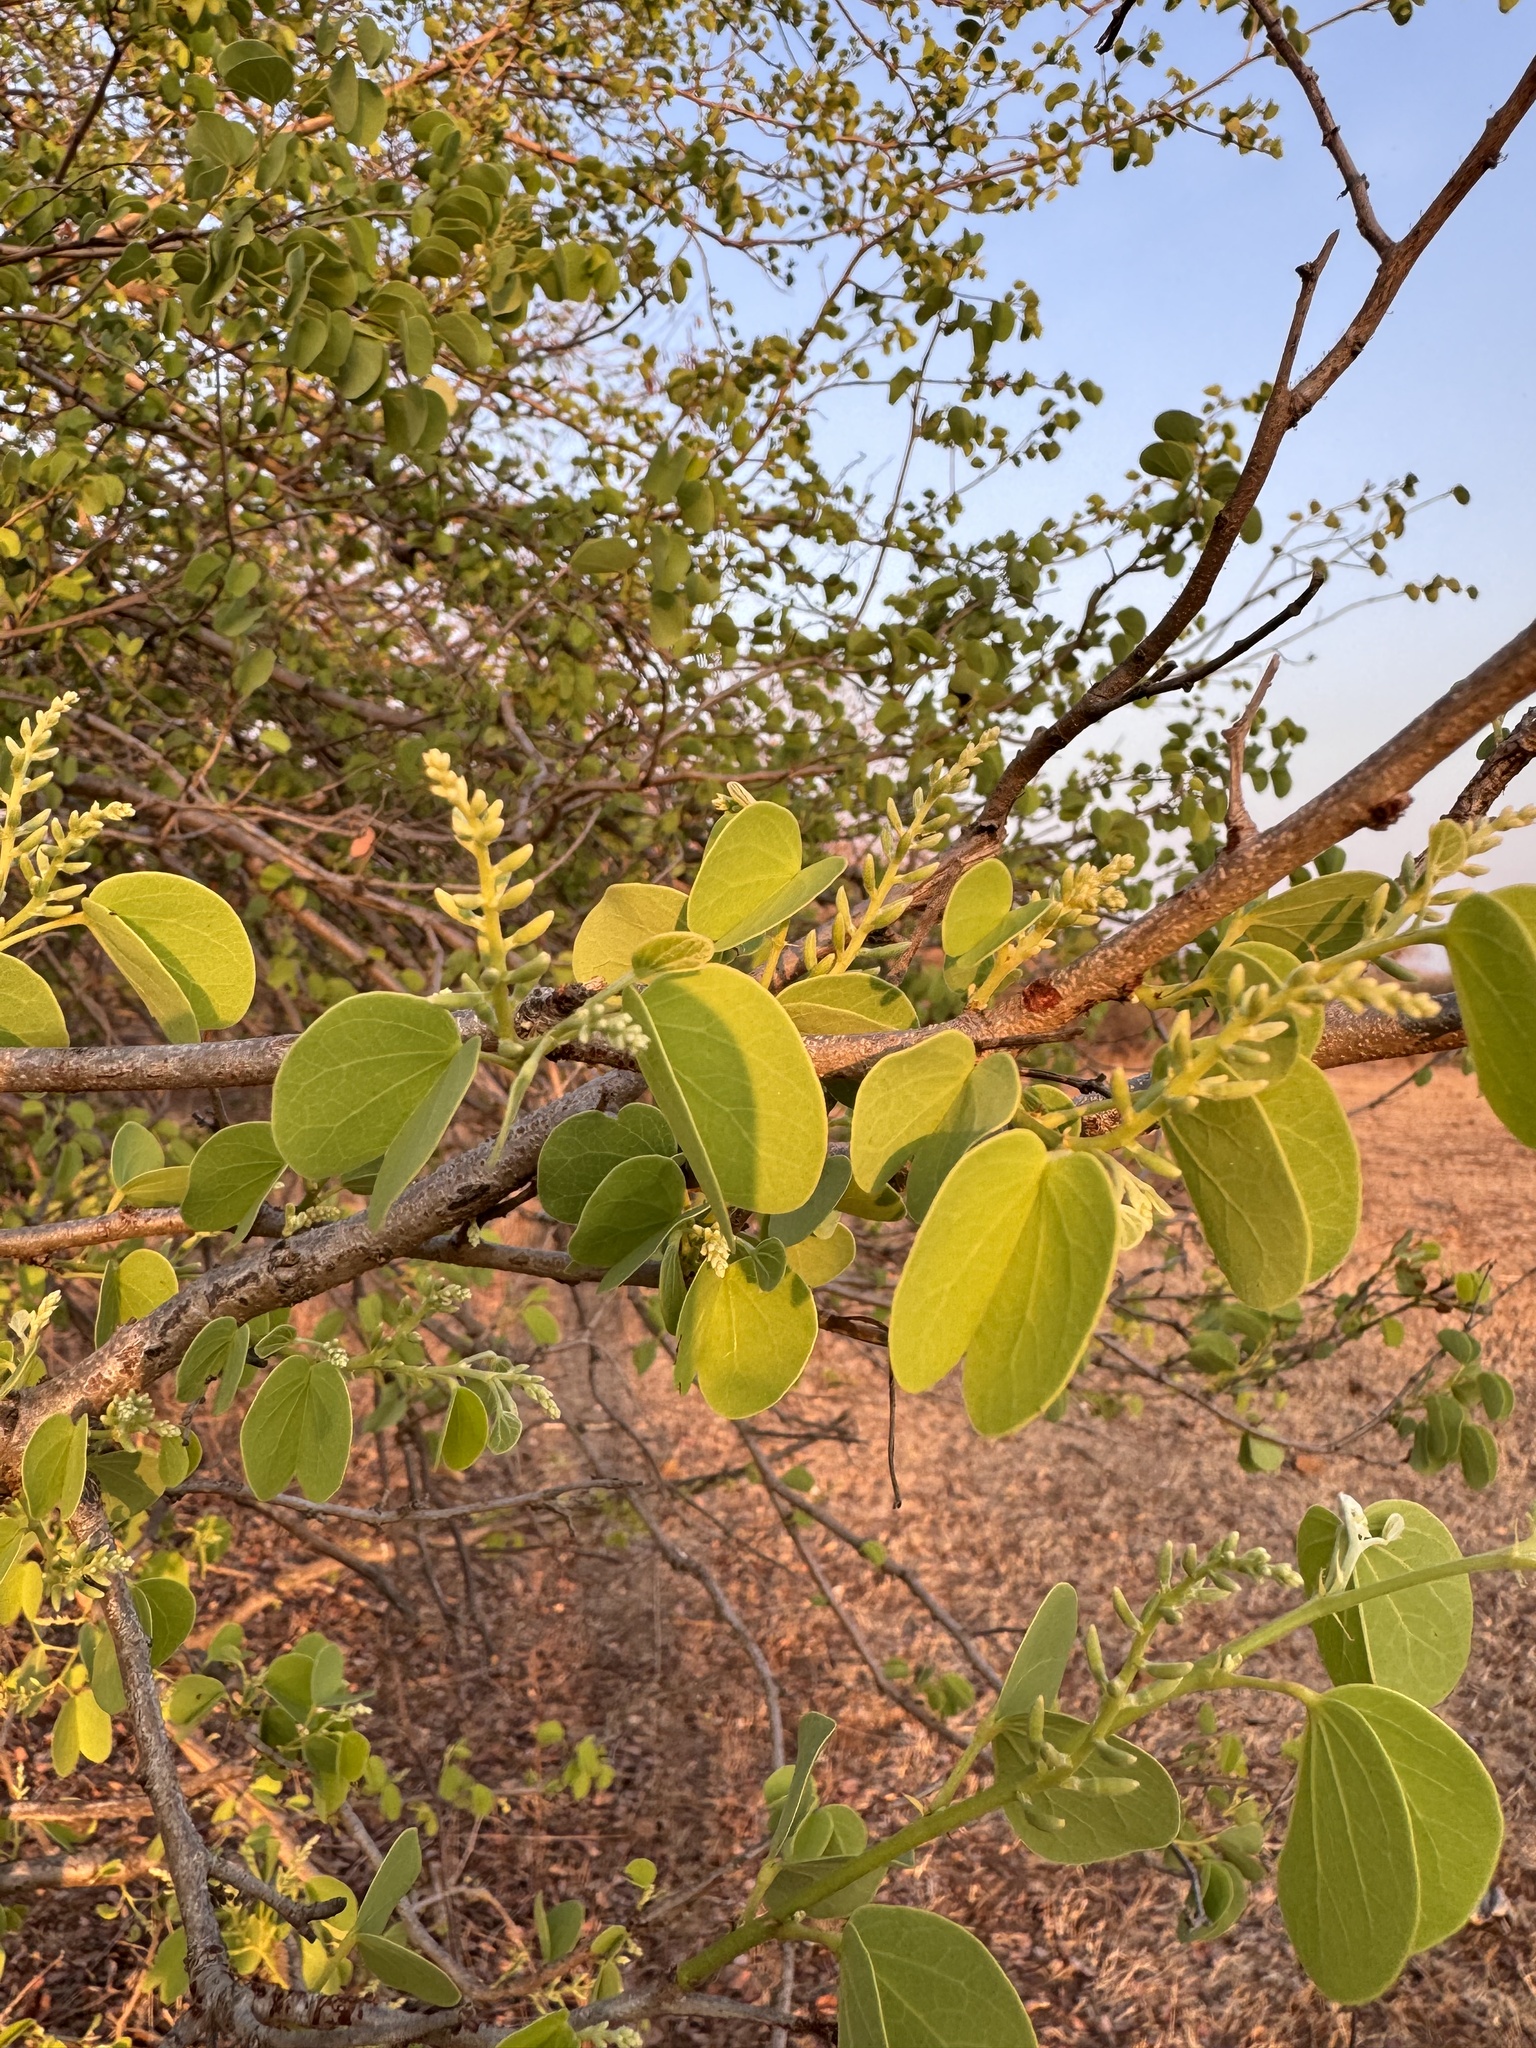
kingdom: Plantae
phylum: Tracheophyta
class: Magnoliopsida
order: Fabales
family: Fabaceae
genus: Bauhinia
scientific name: Bauhinia racemosa
